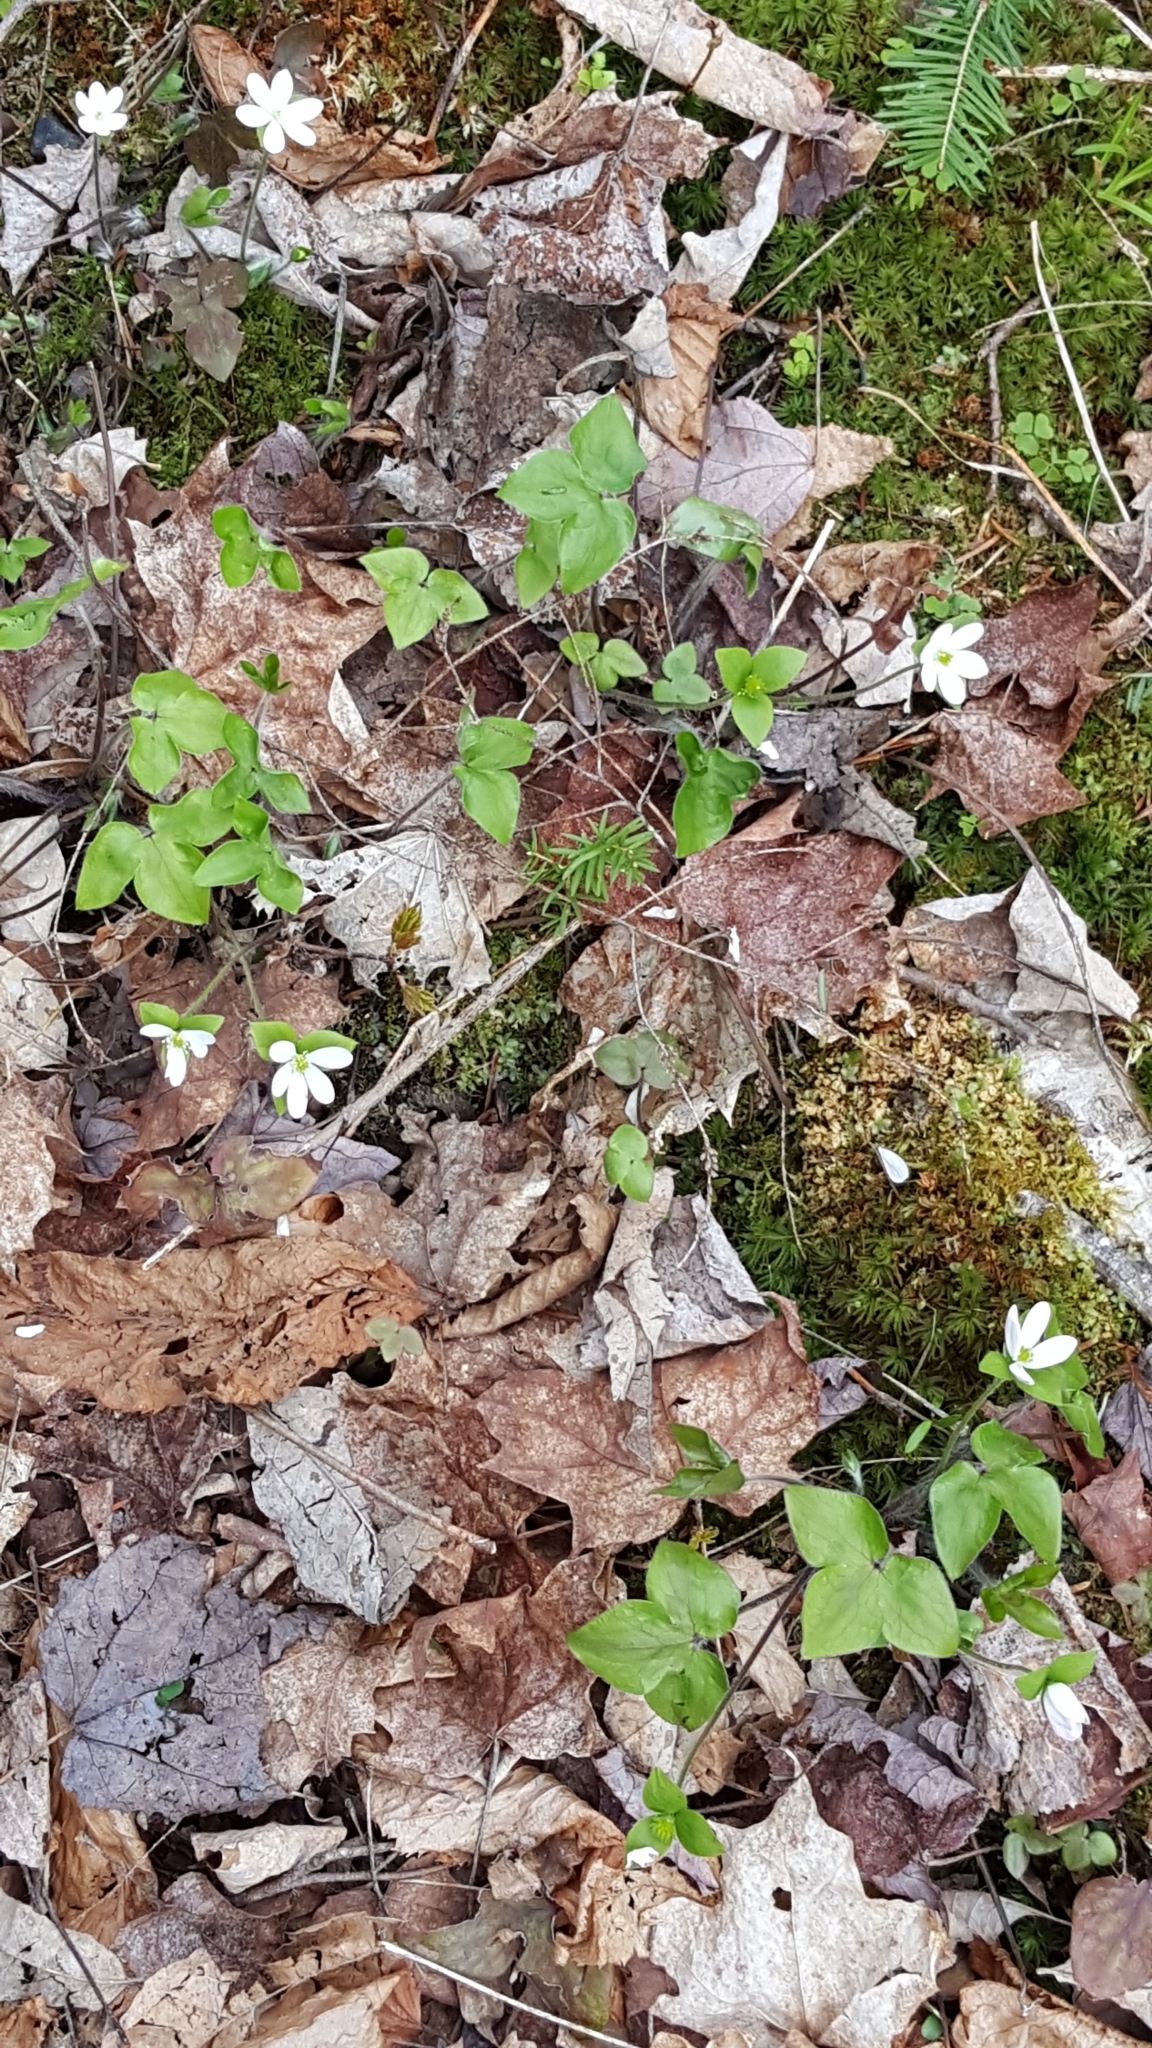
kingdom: Plantae
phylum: Tracheophyta
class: Magnoliopsida
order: Ranunculales
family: Ranunculaceae
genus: Hepatica
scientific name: Hepatica acutiloba
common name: Sharp-lobed hepatica
